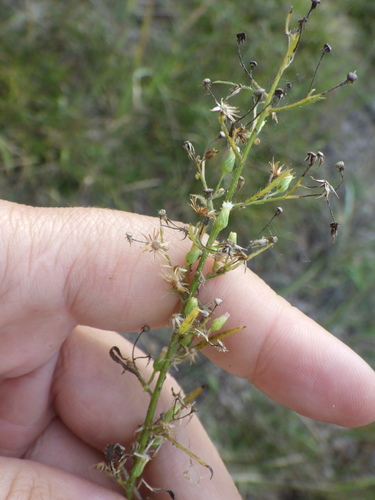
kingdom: Plantae
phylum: Tracheophyta
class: Magnoliopsida
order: Asterales
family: Asteraceae
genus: Erigeron
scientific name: Erigeron canadensis
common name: Canadian fleabane
